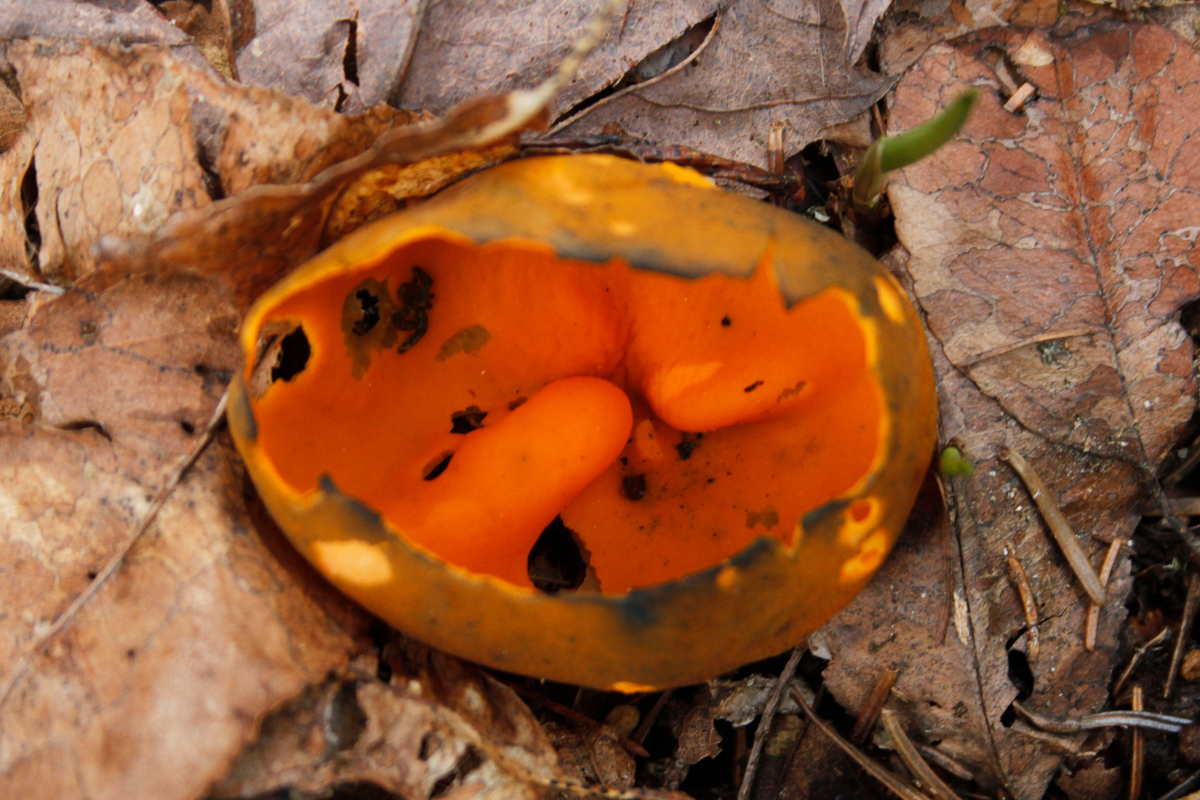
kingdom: Fungi
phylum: Ascomycota
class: Pezizomycetes
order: Pezizales
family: Caloscyphaceae
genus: Caloscypha
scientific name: Caloscypha fulgens
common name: Golden cup
